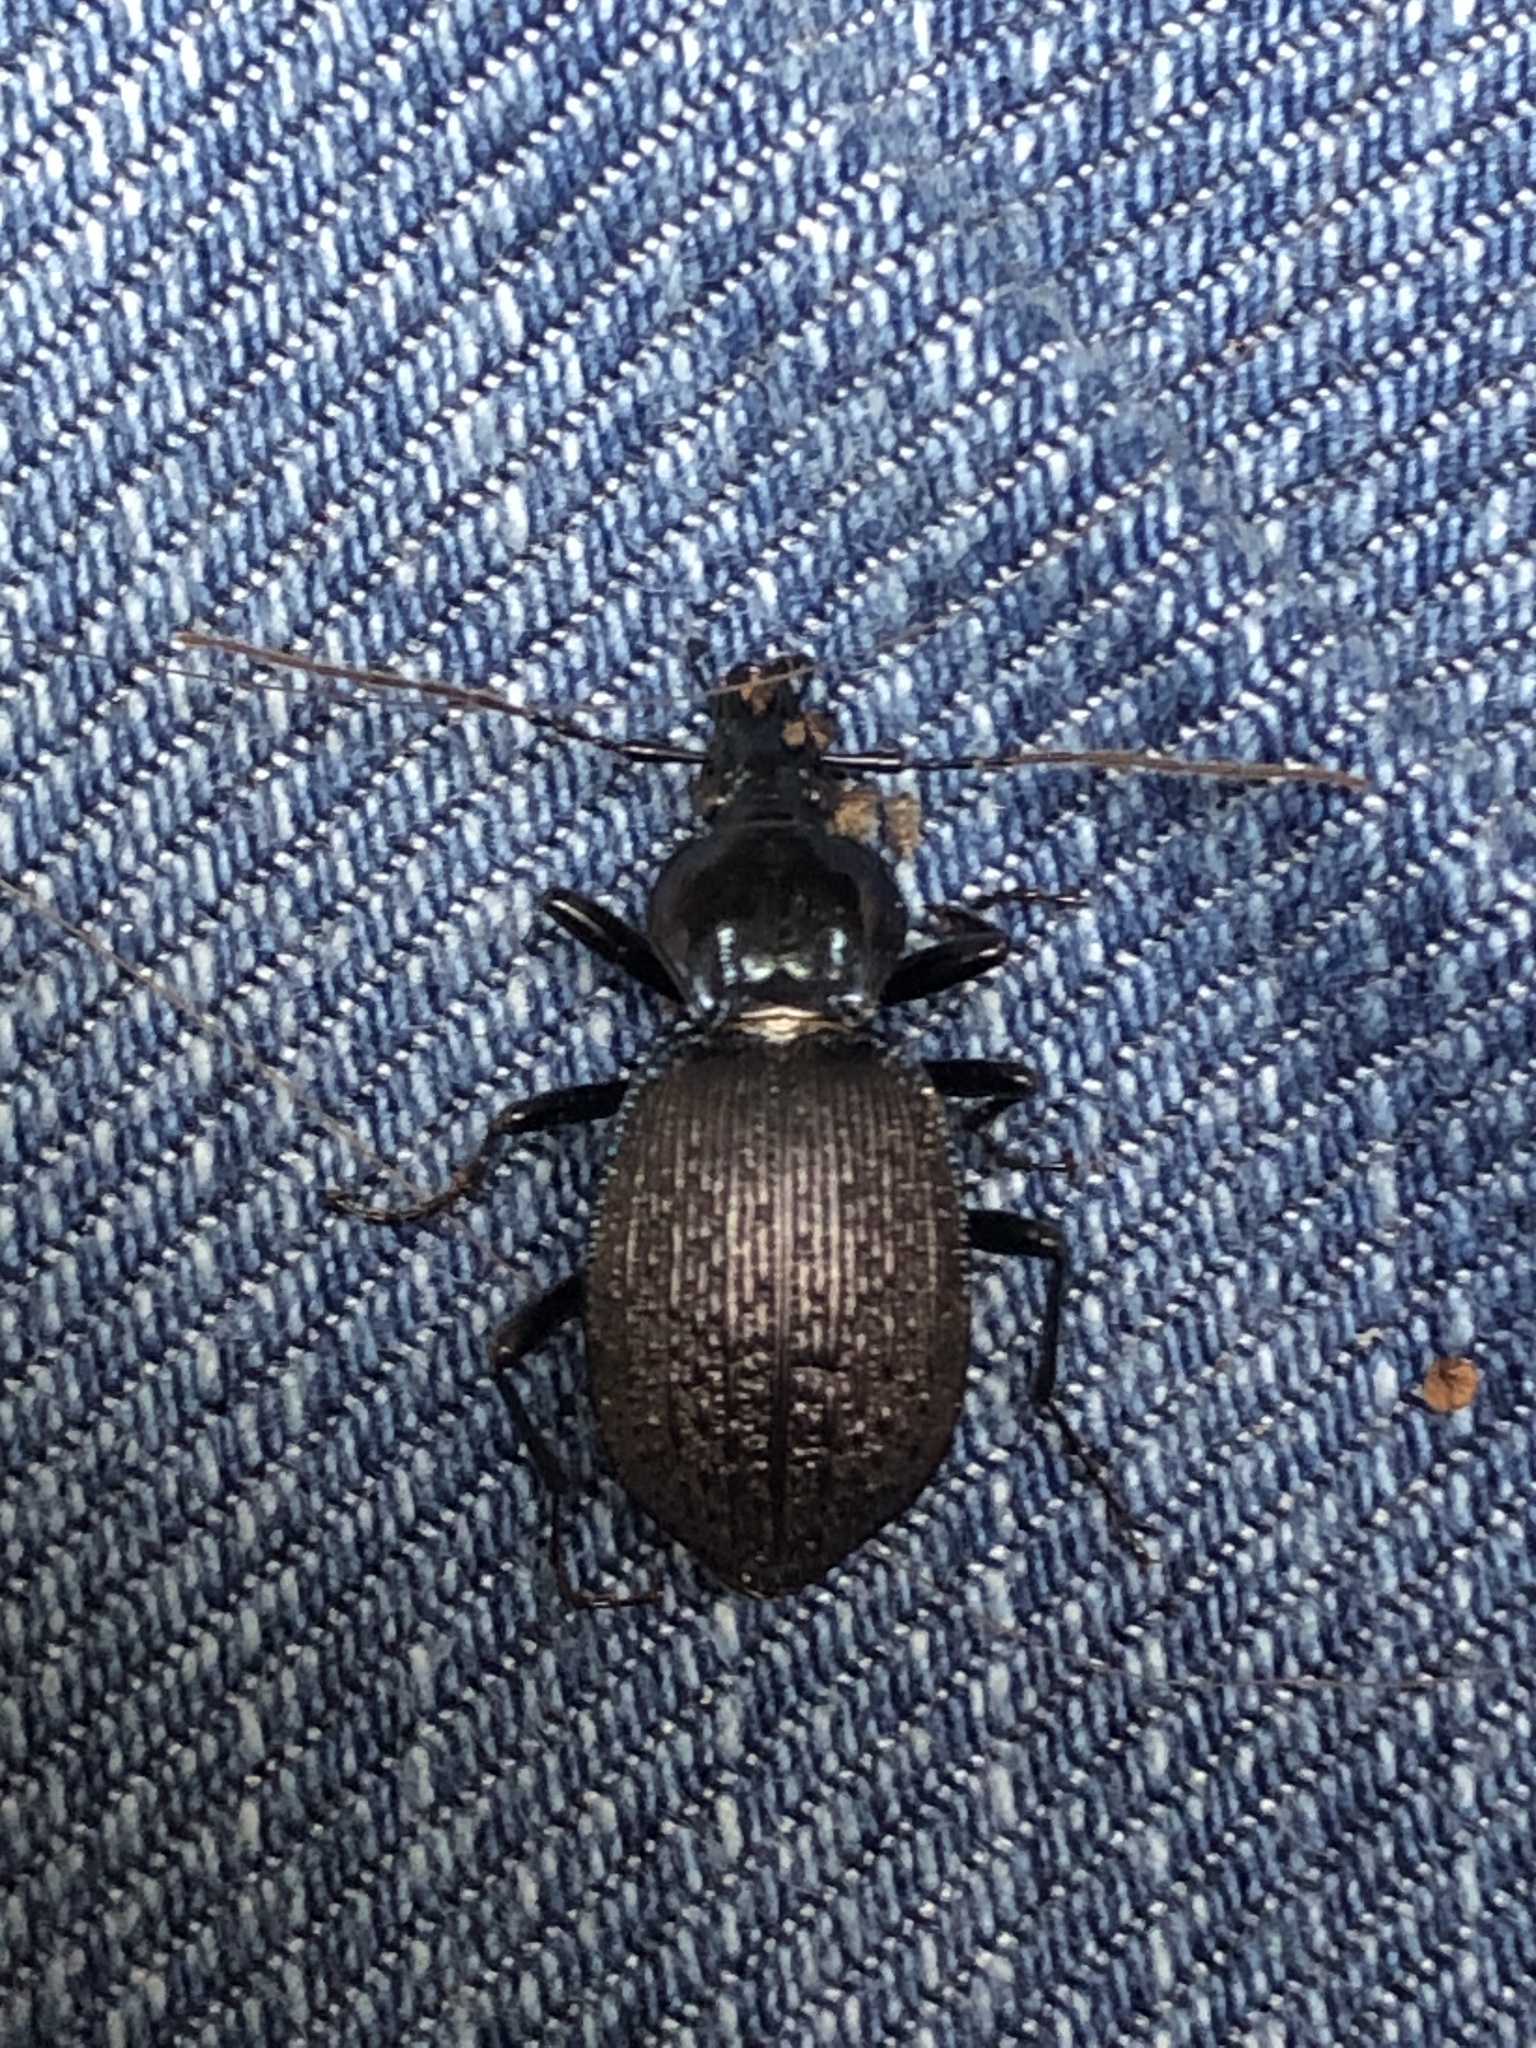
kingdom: Animalia
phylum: Arthropoda
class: Insecta
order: Coleoptera
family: Carabidae
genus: Sphaeroderus
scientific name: Sphaeroderus bicarinatus
